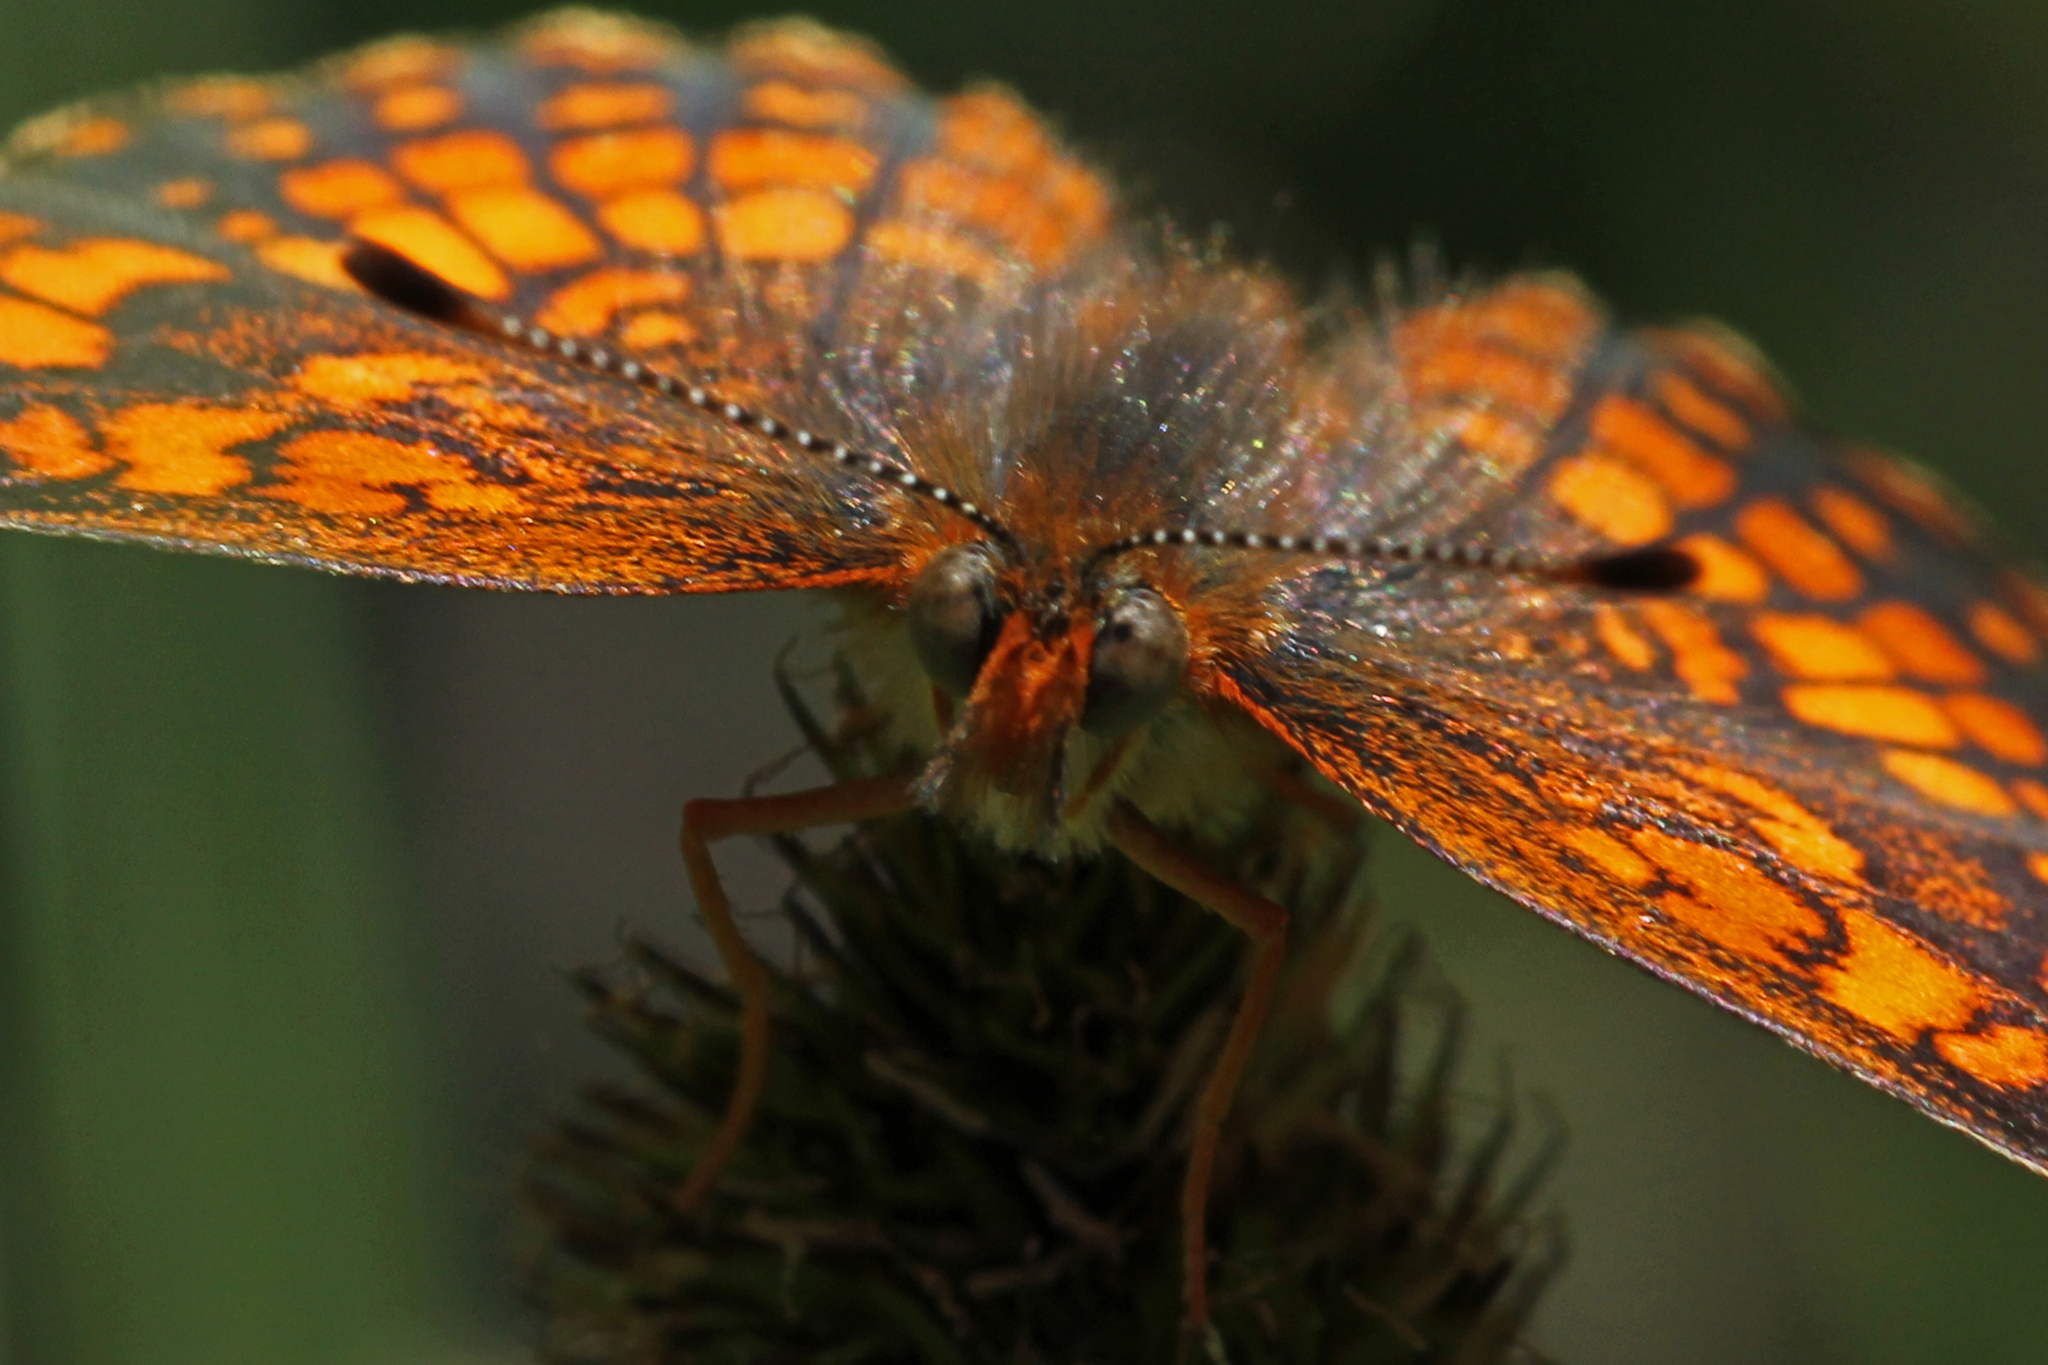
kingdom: Animalia
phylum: Arthropoda
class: Insecta
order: Lepidoptera
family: Nymphalidae
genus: Chlosyne
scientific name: Chlosyne palla
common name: Northern checkerspot
